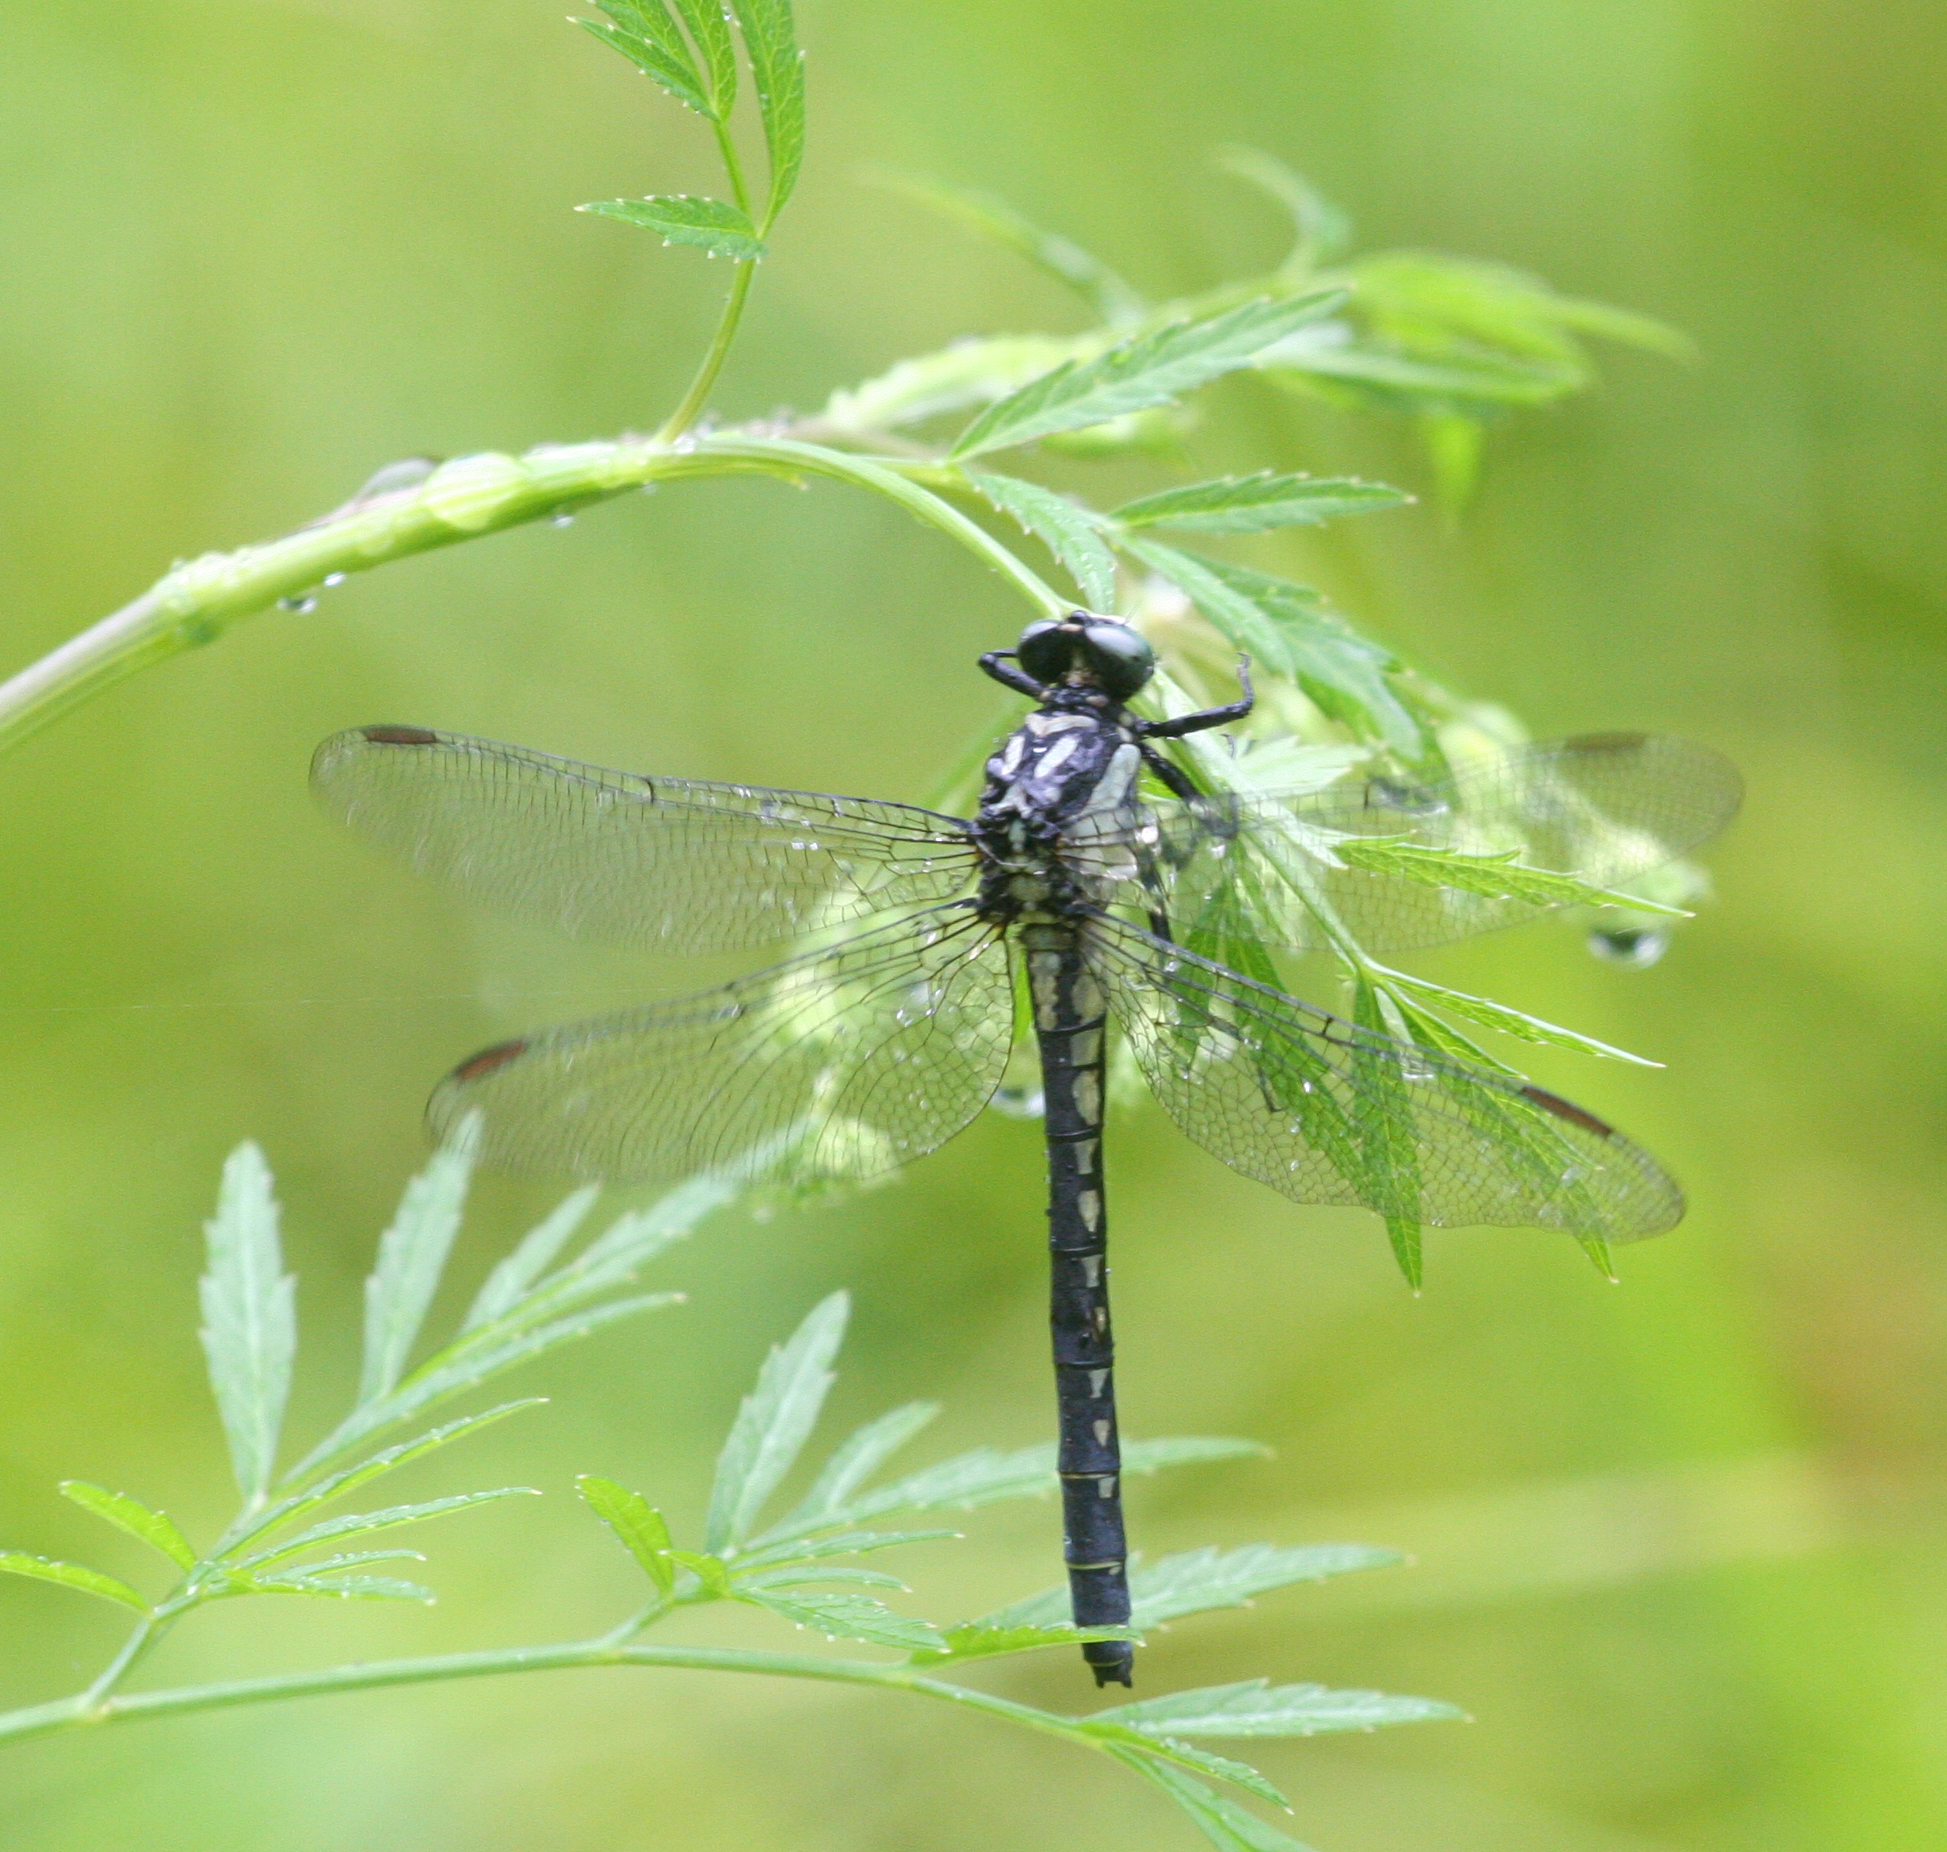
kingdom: Animalia
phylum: Arthropoda
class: Insecta
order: Odonata
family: Gomphidae
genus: Davidius
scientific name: Davidius lunatus
